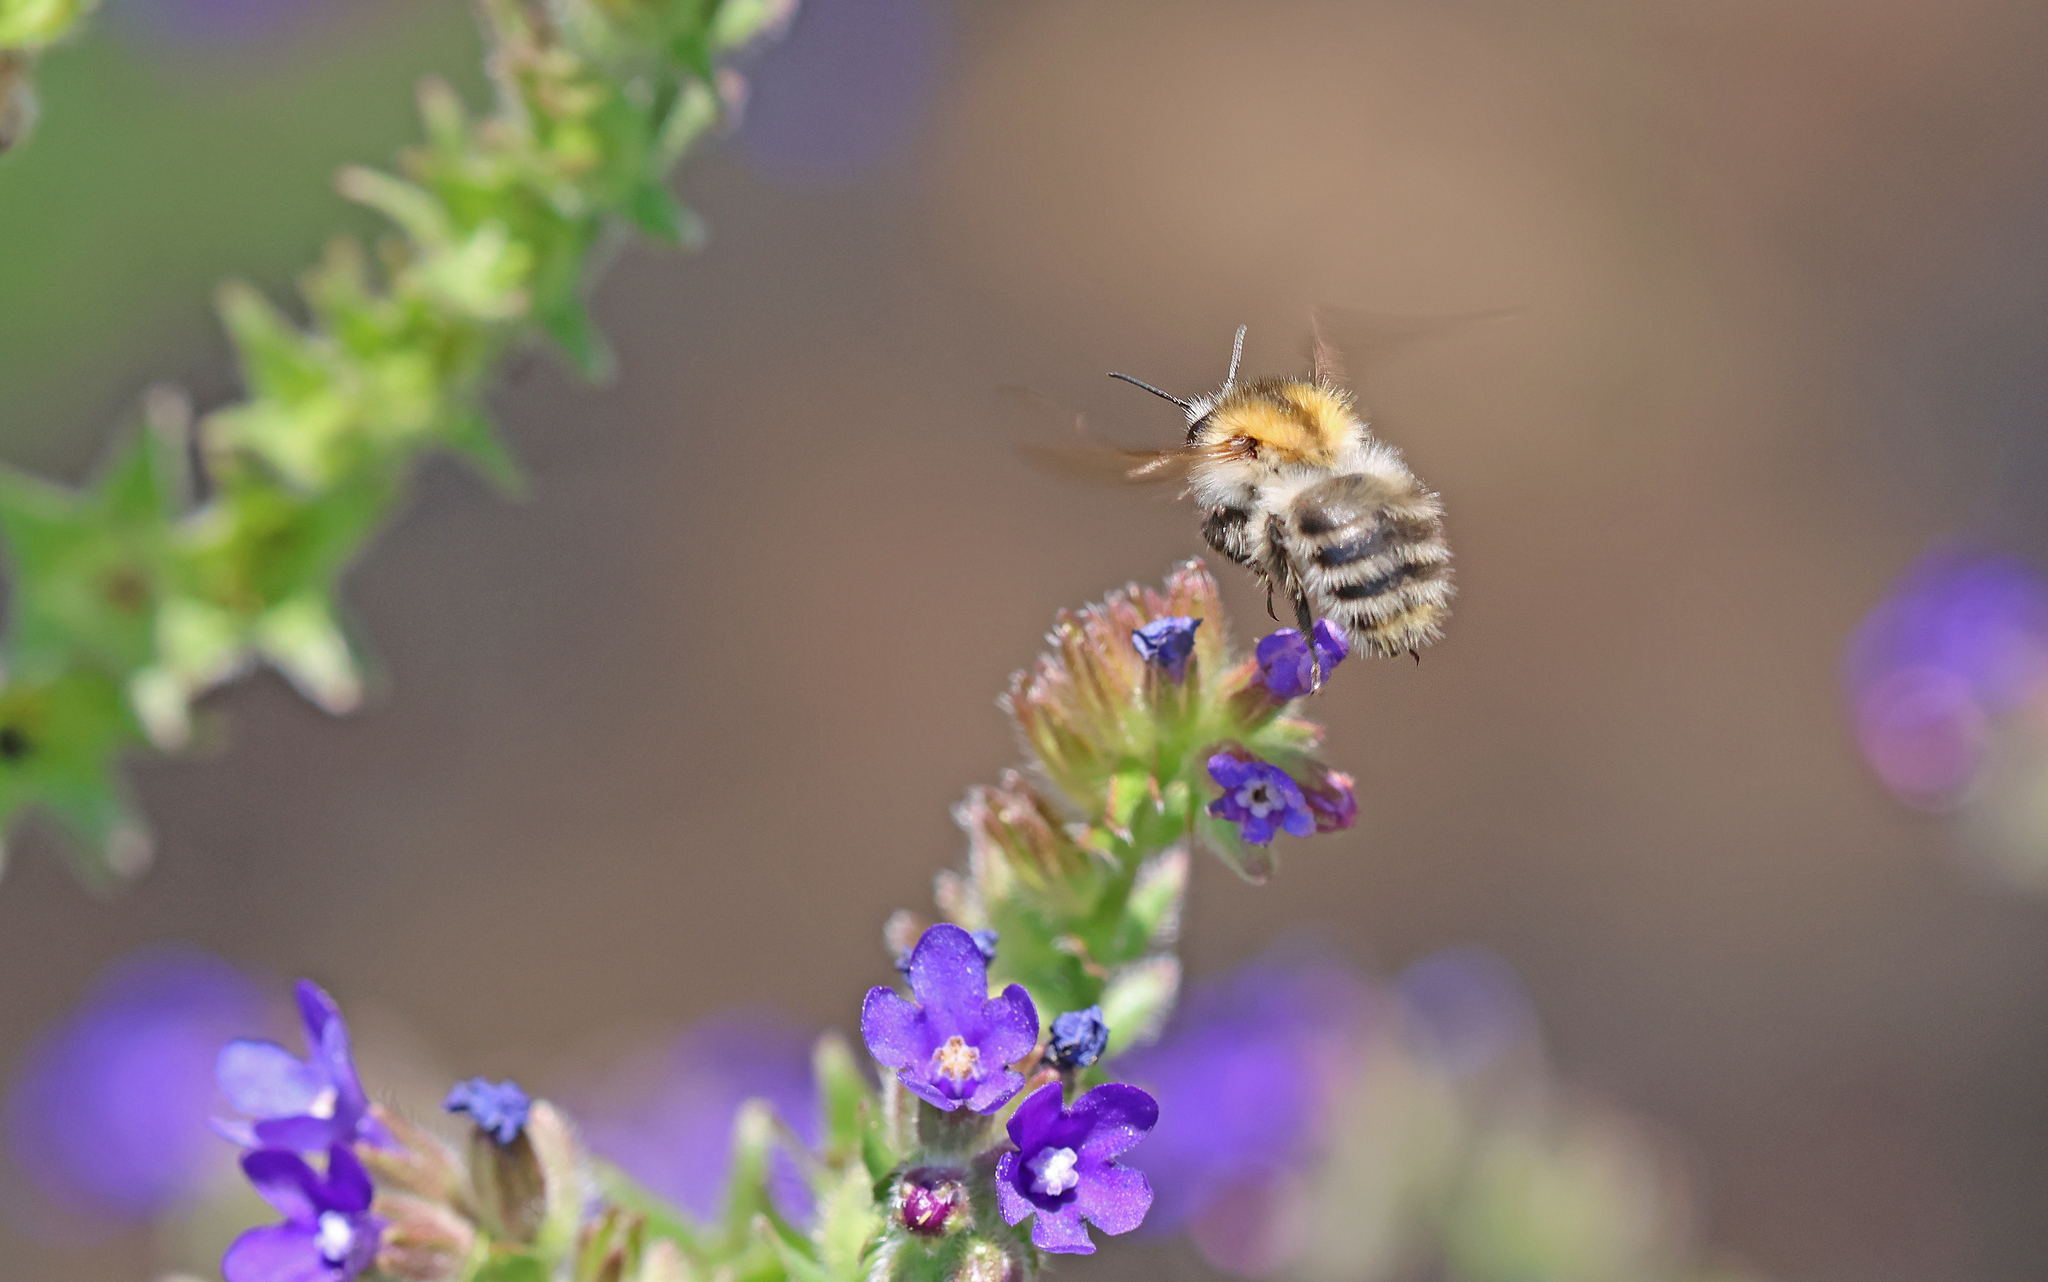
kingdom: Animalia
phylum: Arthropoda
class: Insecta
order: Hymenoptera
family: Apidae
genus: Bombus
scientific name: Bombus pascuorum
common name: Common carder bee
